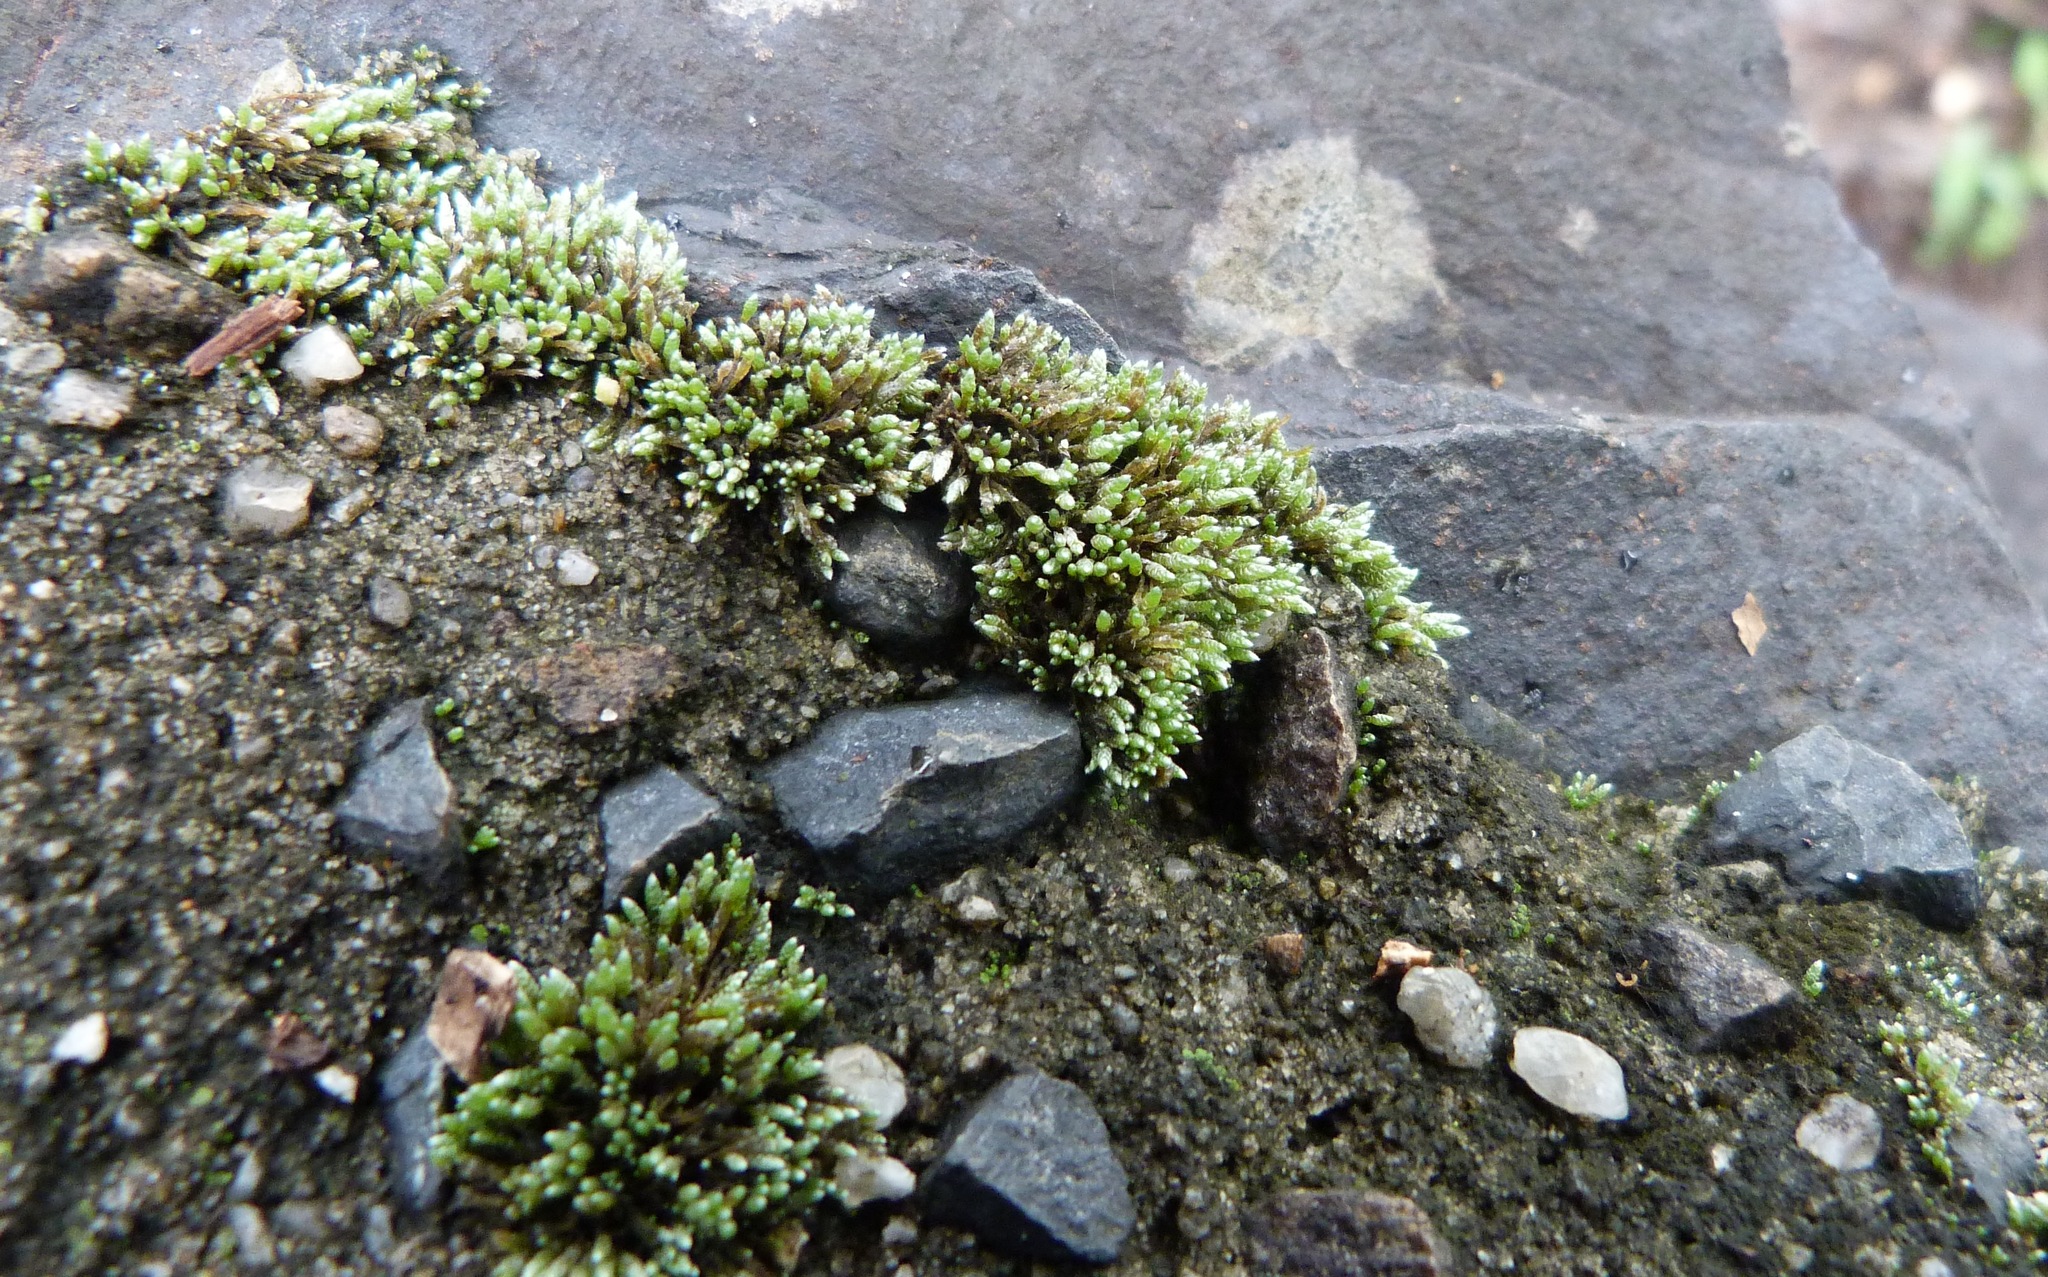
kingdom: Plantae
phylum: Bryophyta
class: Bryopsida
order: Bryales
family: Bryaceae
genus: Bryum
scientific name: Bryum argenteum
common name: Silver-moss
